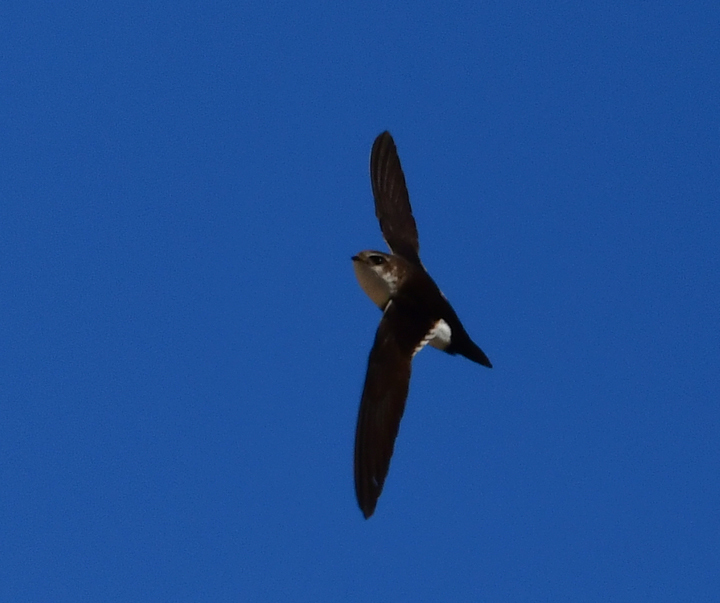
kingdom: Animalia
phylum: Chordata
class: Aves
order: Apodiformes
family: Apodidae
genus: Aeronautes
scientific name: Aeronautes saxatalis
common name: White-throated swift
